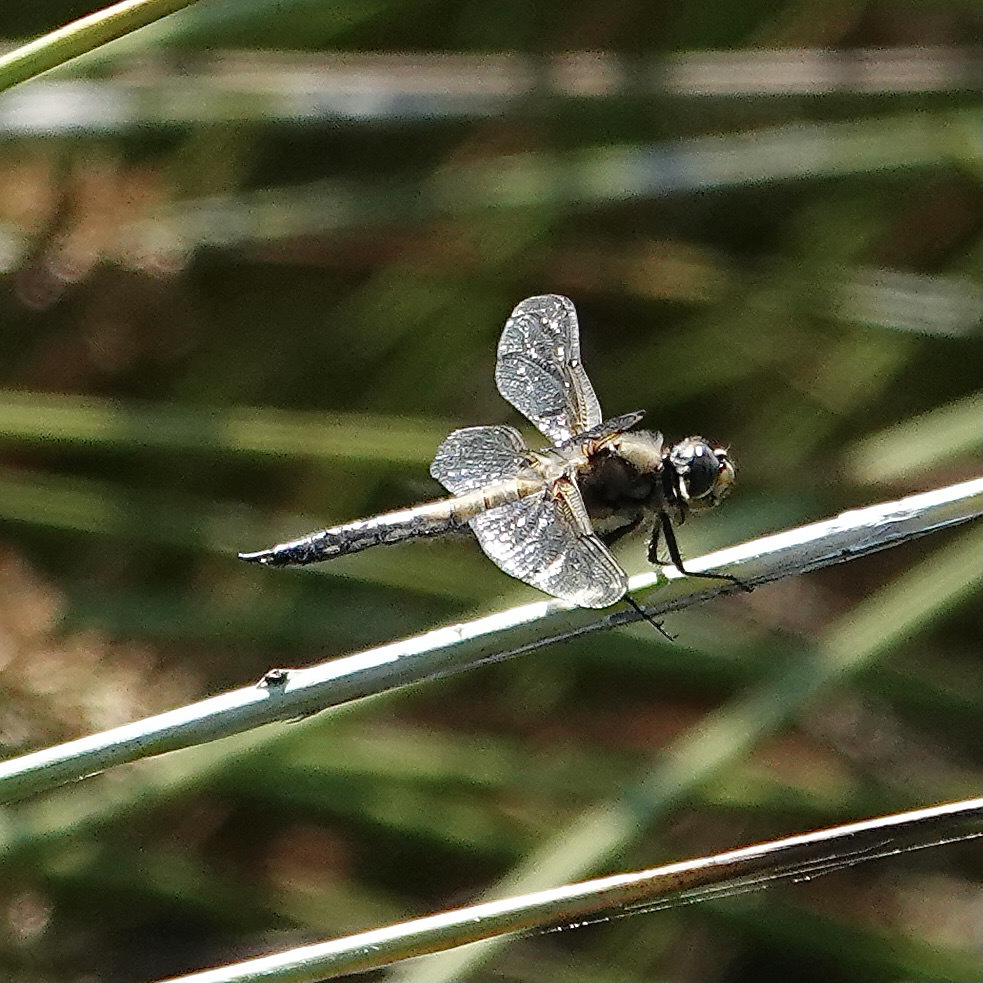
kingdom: Animalia
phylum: Arthropoda
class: Insecta
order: Odonata
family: Libellulidae
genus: Libellula
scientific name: Libellula quadrimaculata
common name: Four-spotted chaser
